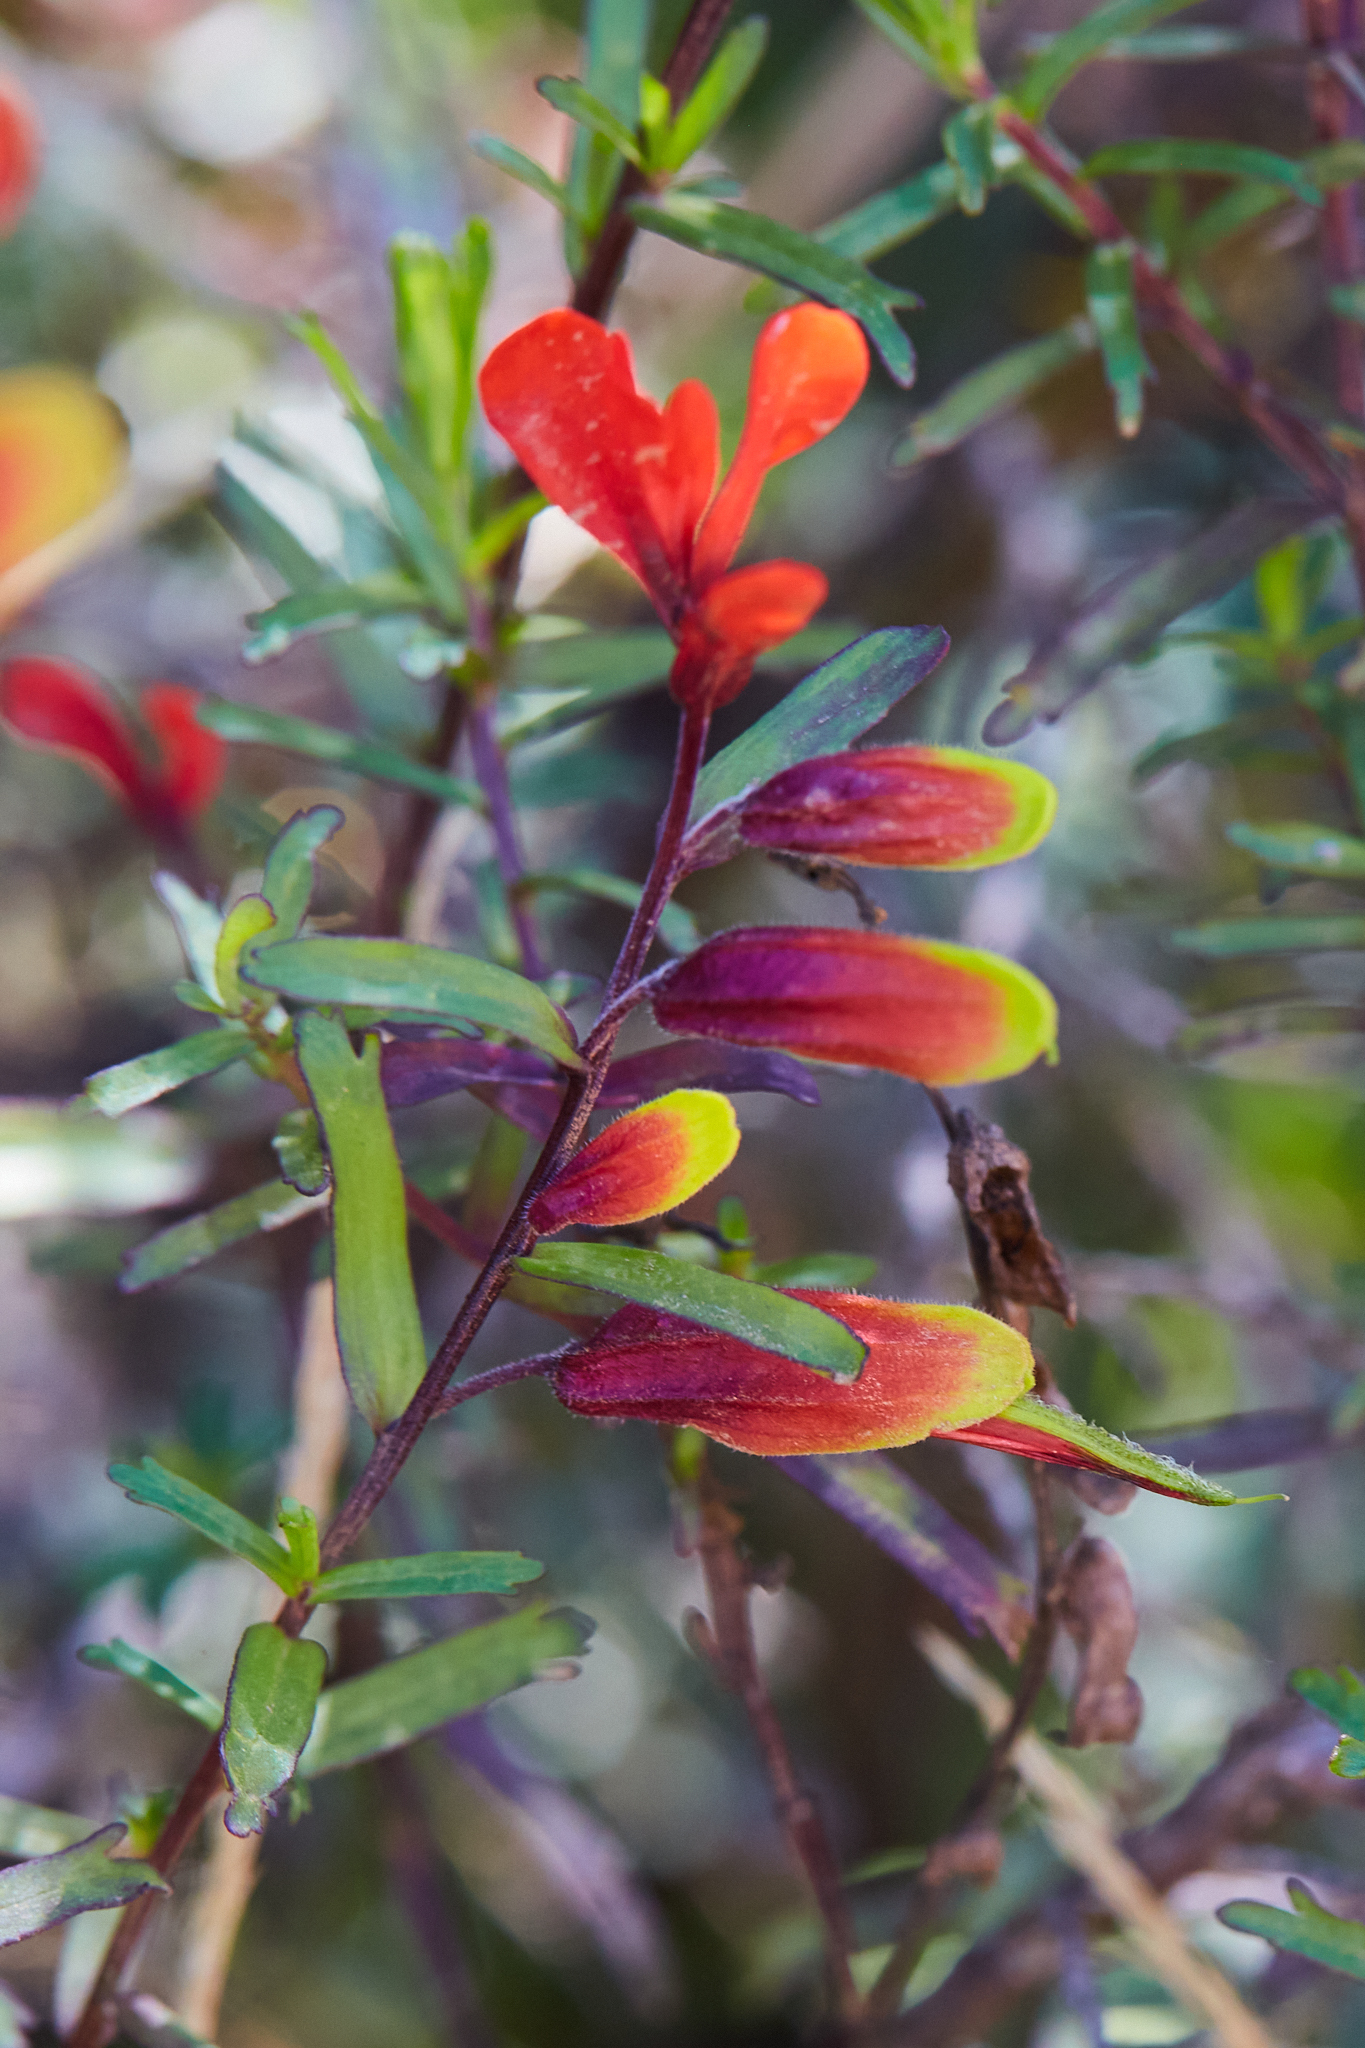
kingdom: Plantae
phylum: Tracheophyta
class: Magnoliopsida
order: Lamiales
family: Orobanchaceae
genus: Castilleja
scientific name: Castilleja talamancensis
